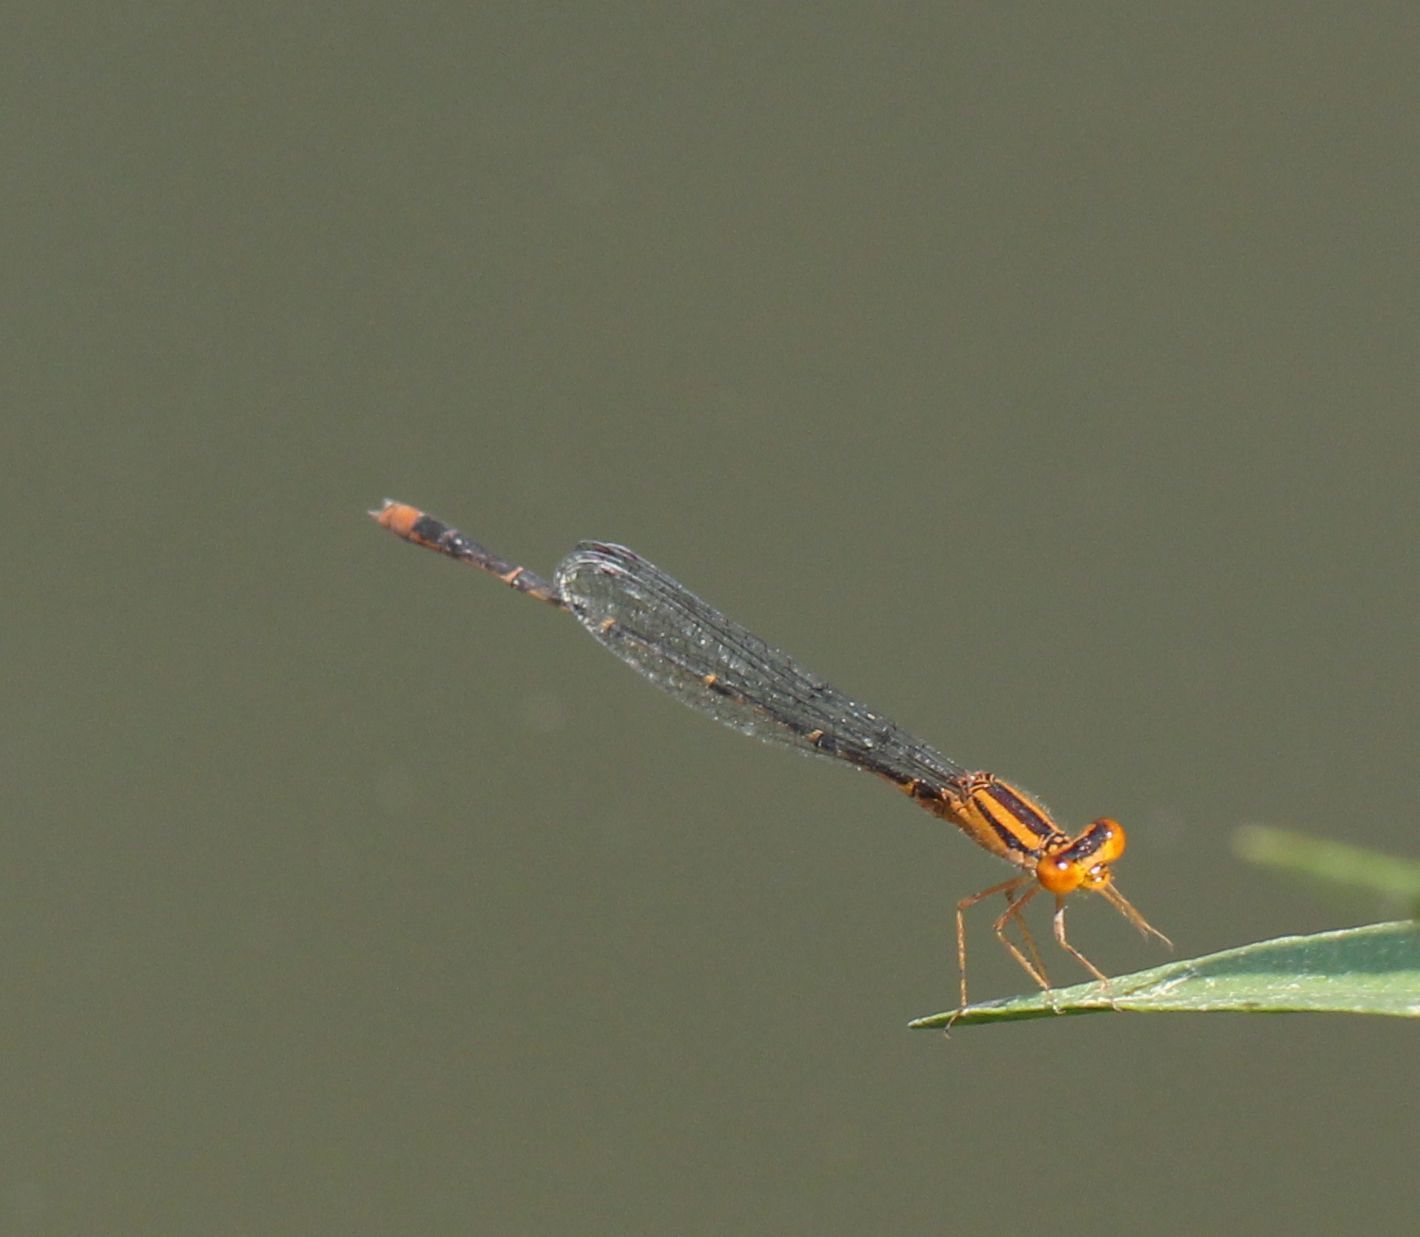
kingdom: Animalia
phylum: Arthropoda
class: Insecta
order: Odonata
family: Coenagrionidae
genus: Enallagma
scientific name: Enallagma signatum
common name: Orange bluet
